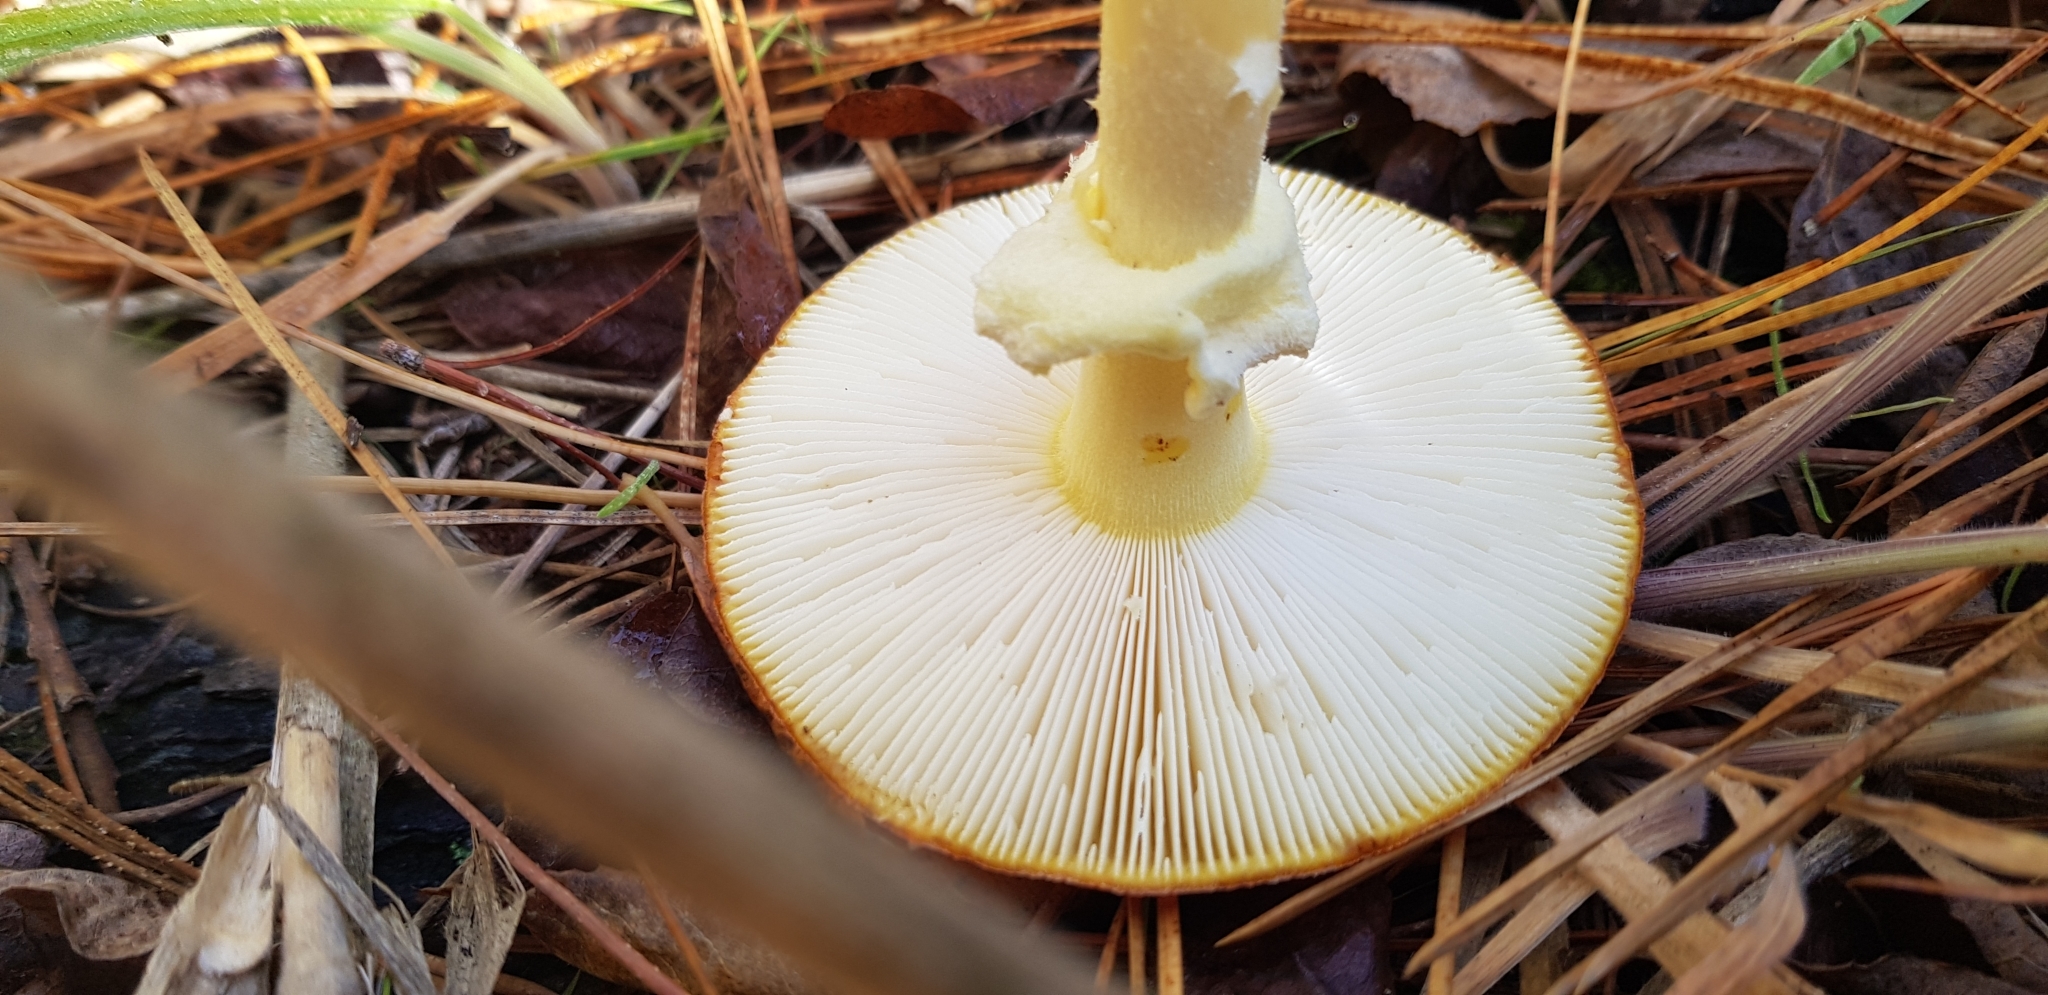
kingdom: Fungi
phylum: Basidiomycota
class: Agaricomycetes
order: Agaricales
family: Amanitaceae
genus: Amanita
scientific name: Amanita muscaria
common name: Fly agaric
